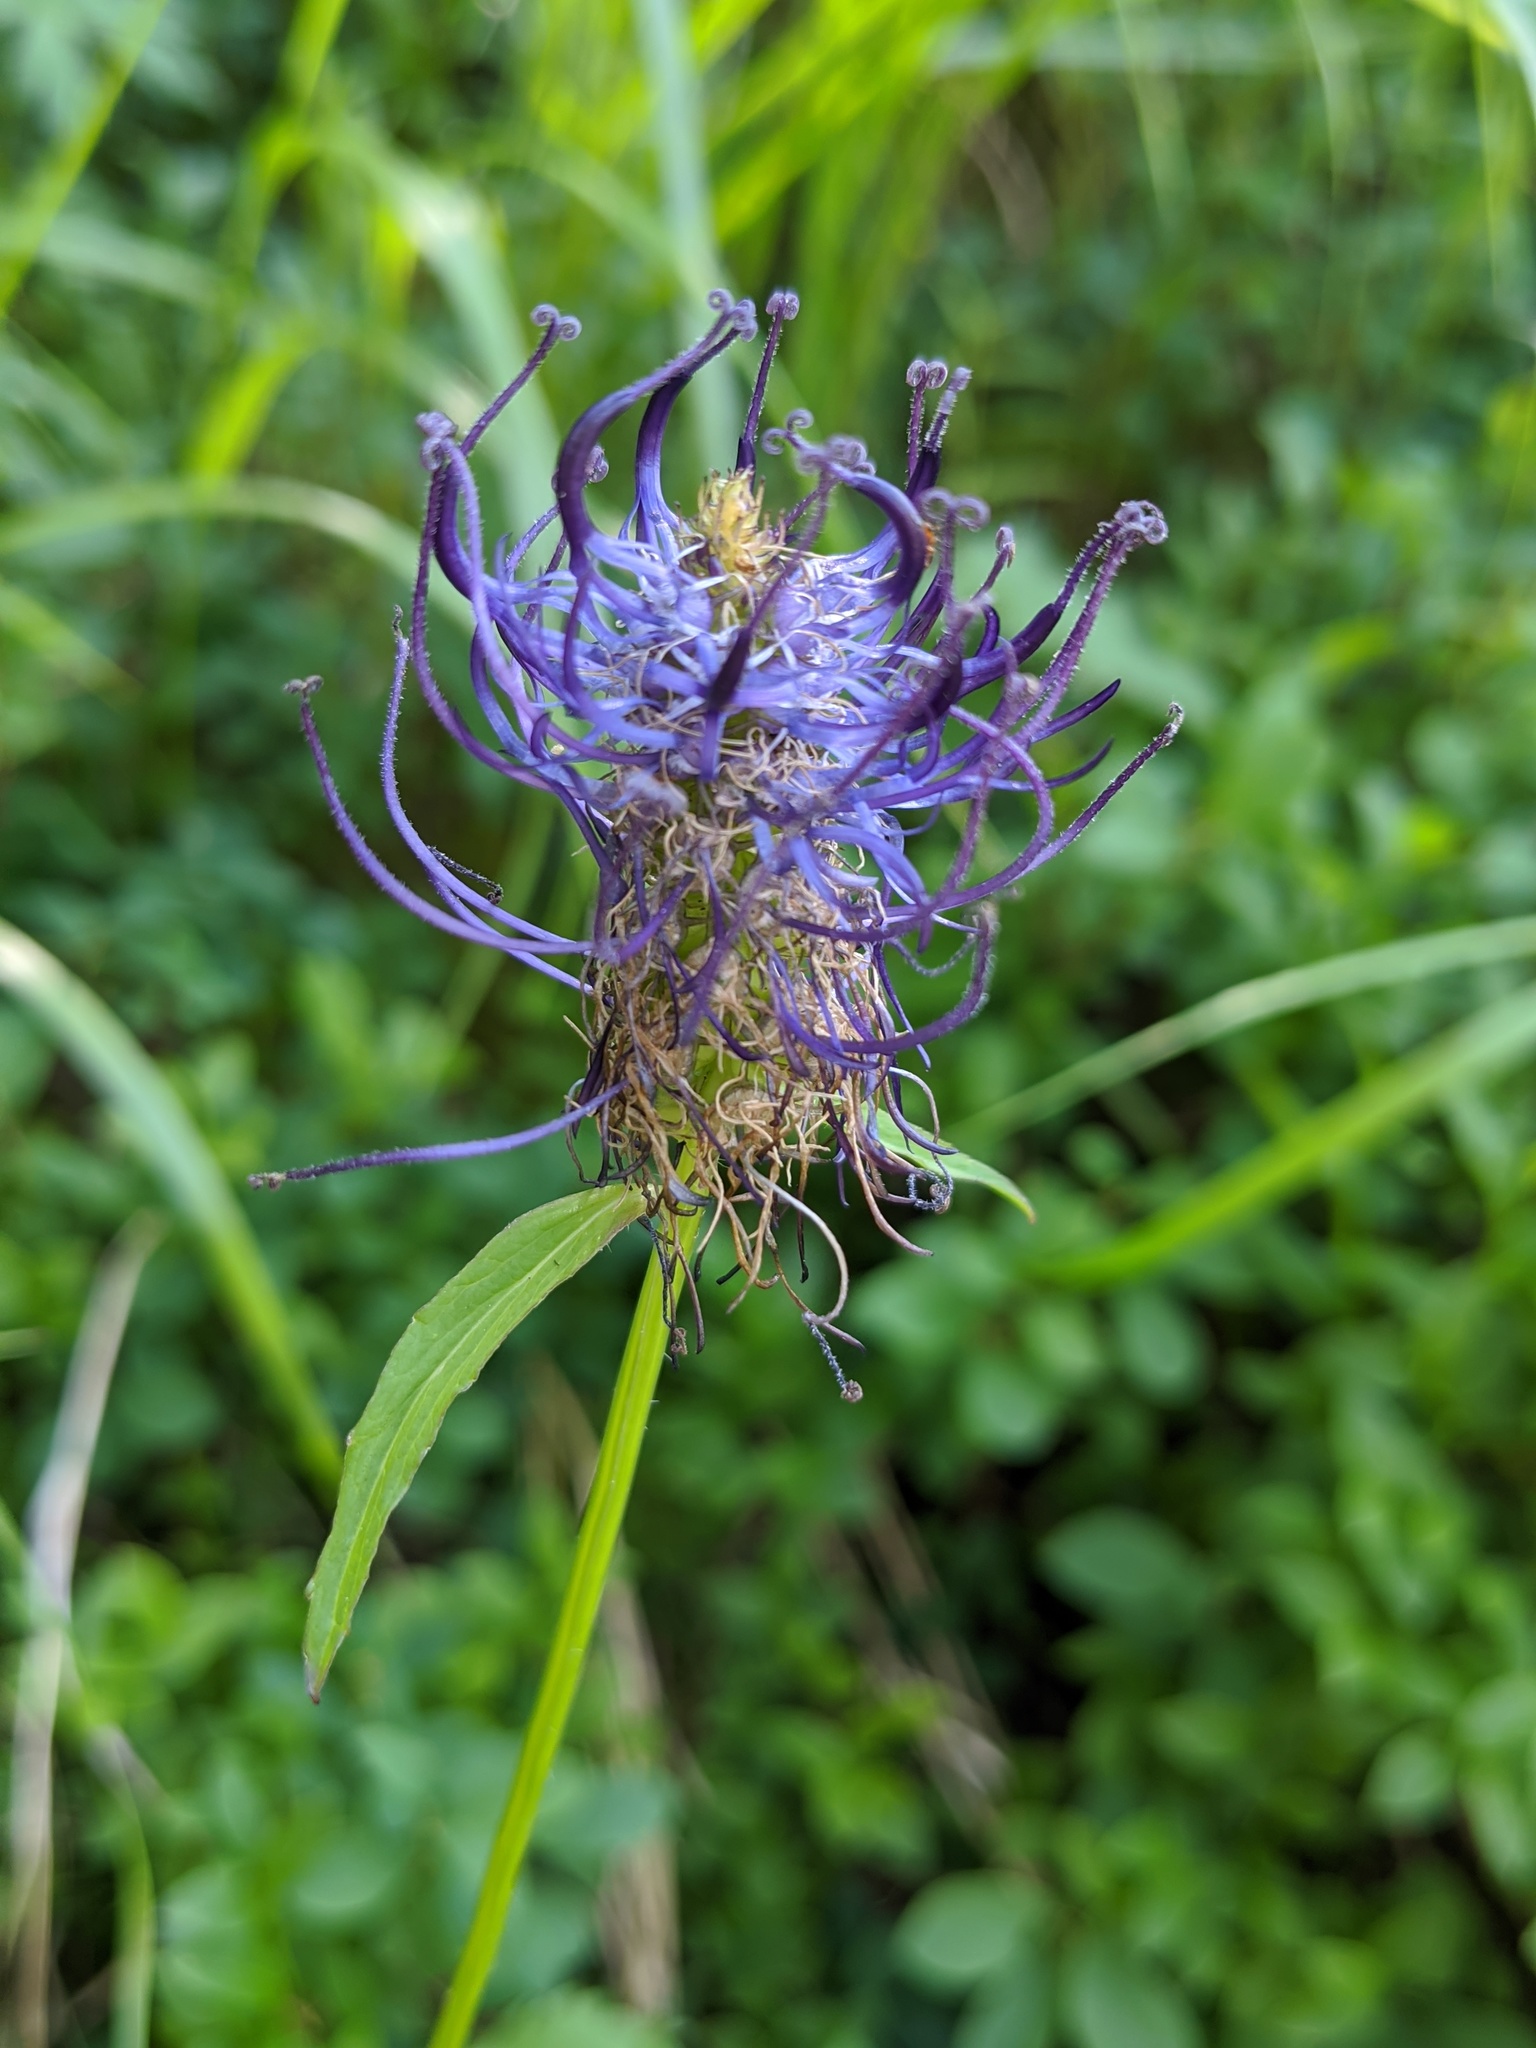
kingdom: Plantae
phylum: Tracheophyta
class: Magnoliopsida
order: Asterales
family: Campanulaceae
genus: Phyteuma
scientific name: Phyteuma spicatum
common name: Spiked rampion
